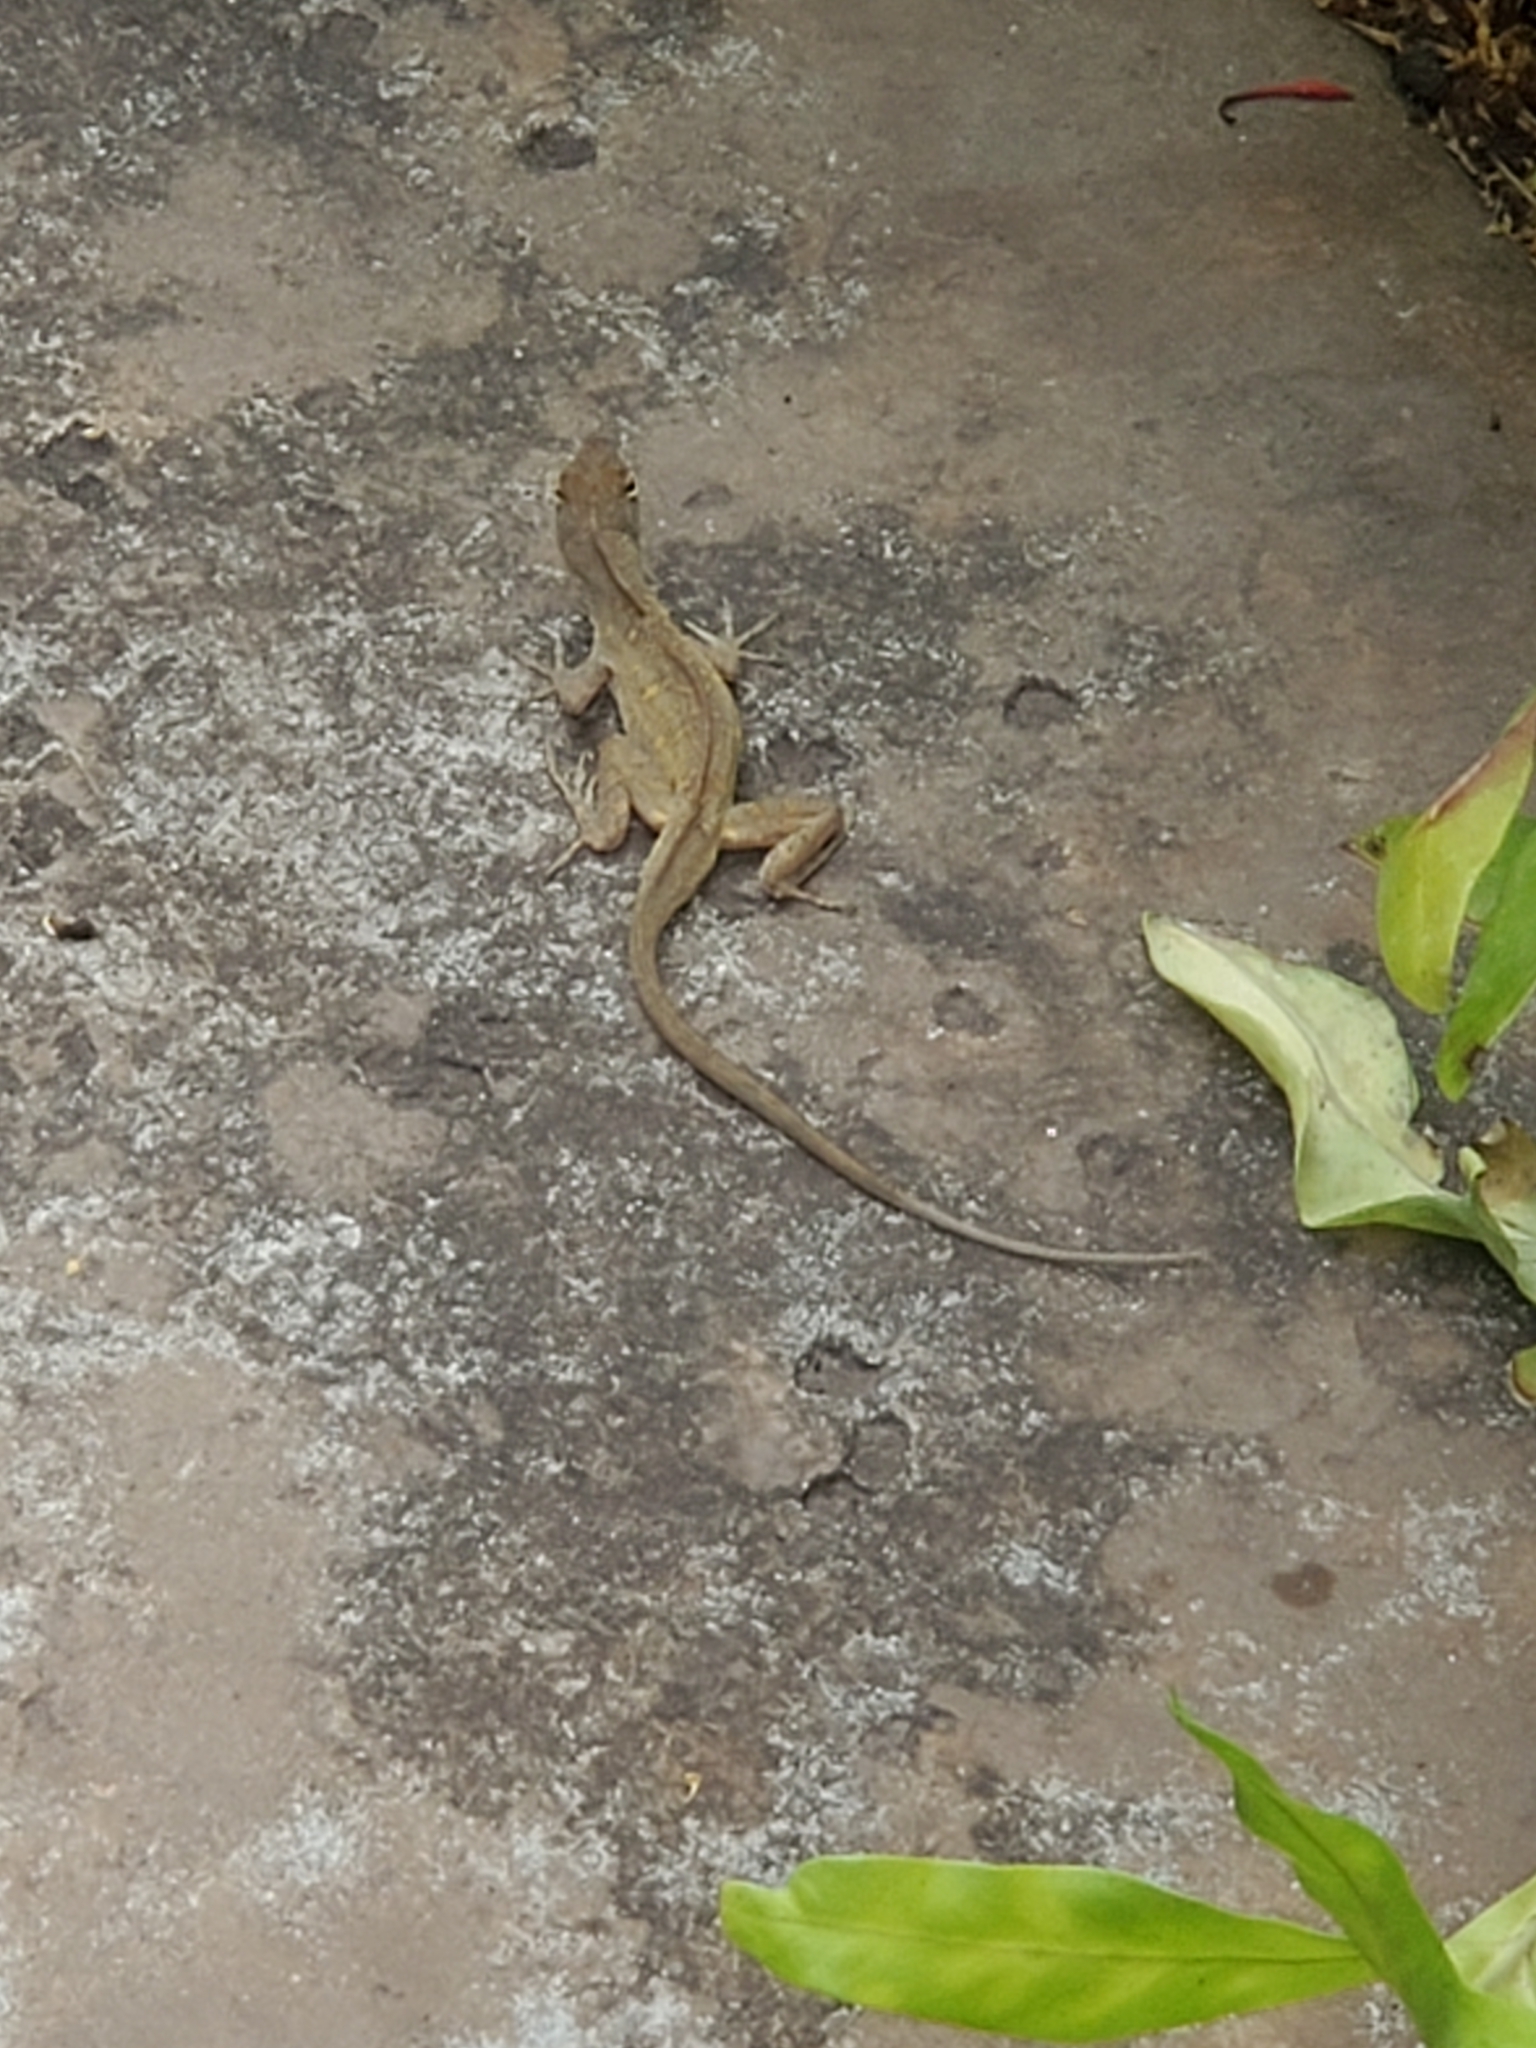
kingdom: Animalia
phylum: Chordata
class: Squamata
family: Dactyloidae
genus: Anolis
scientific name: Anolis sagrei
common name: Brown anole
